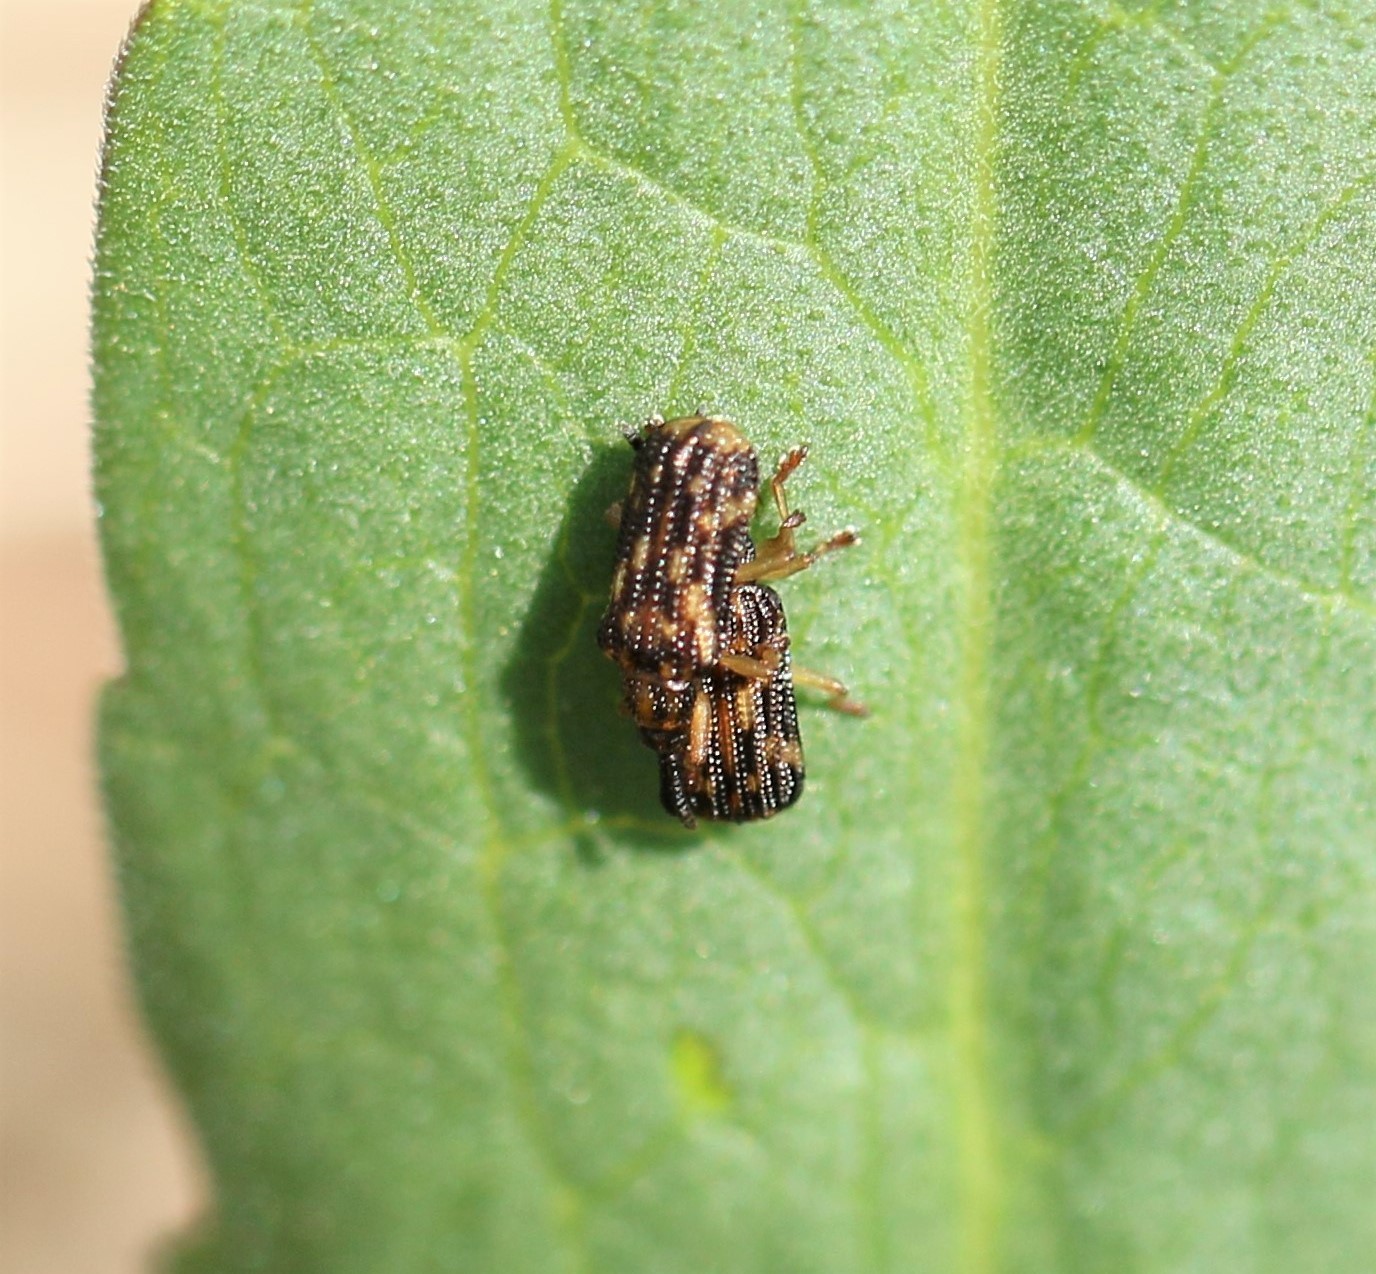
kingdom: Animalia
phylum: Arthropoda
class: Insecta
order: Coleoptera
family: Chrysomelidae
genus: Sumitrosis
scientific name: Sumitrosis inaequalis
